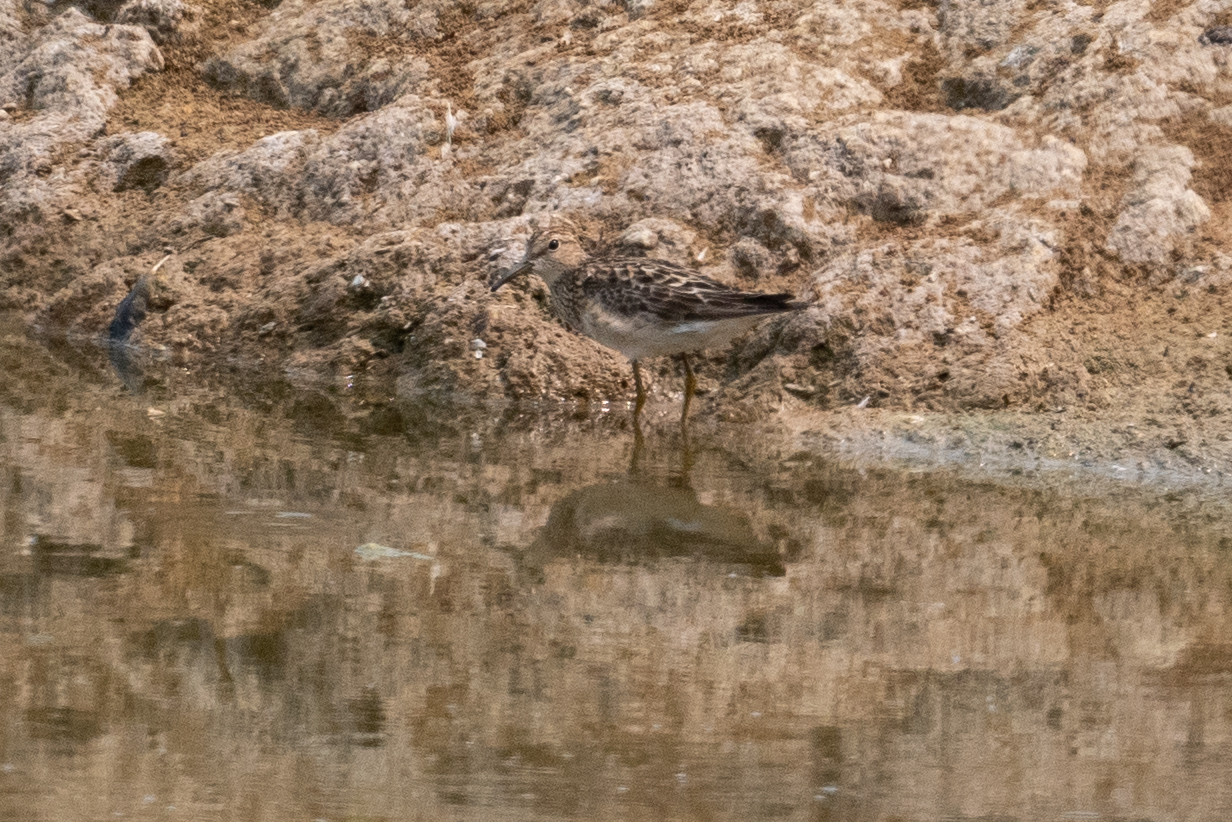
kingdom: Animalia
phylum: Chordata
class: Aves
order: Charadriiformes
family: Scolopacidae
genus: Calidris
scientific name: Calidris melanotos
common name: Pectoral sandpiper
